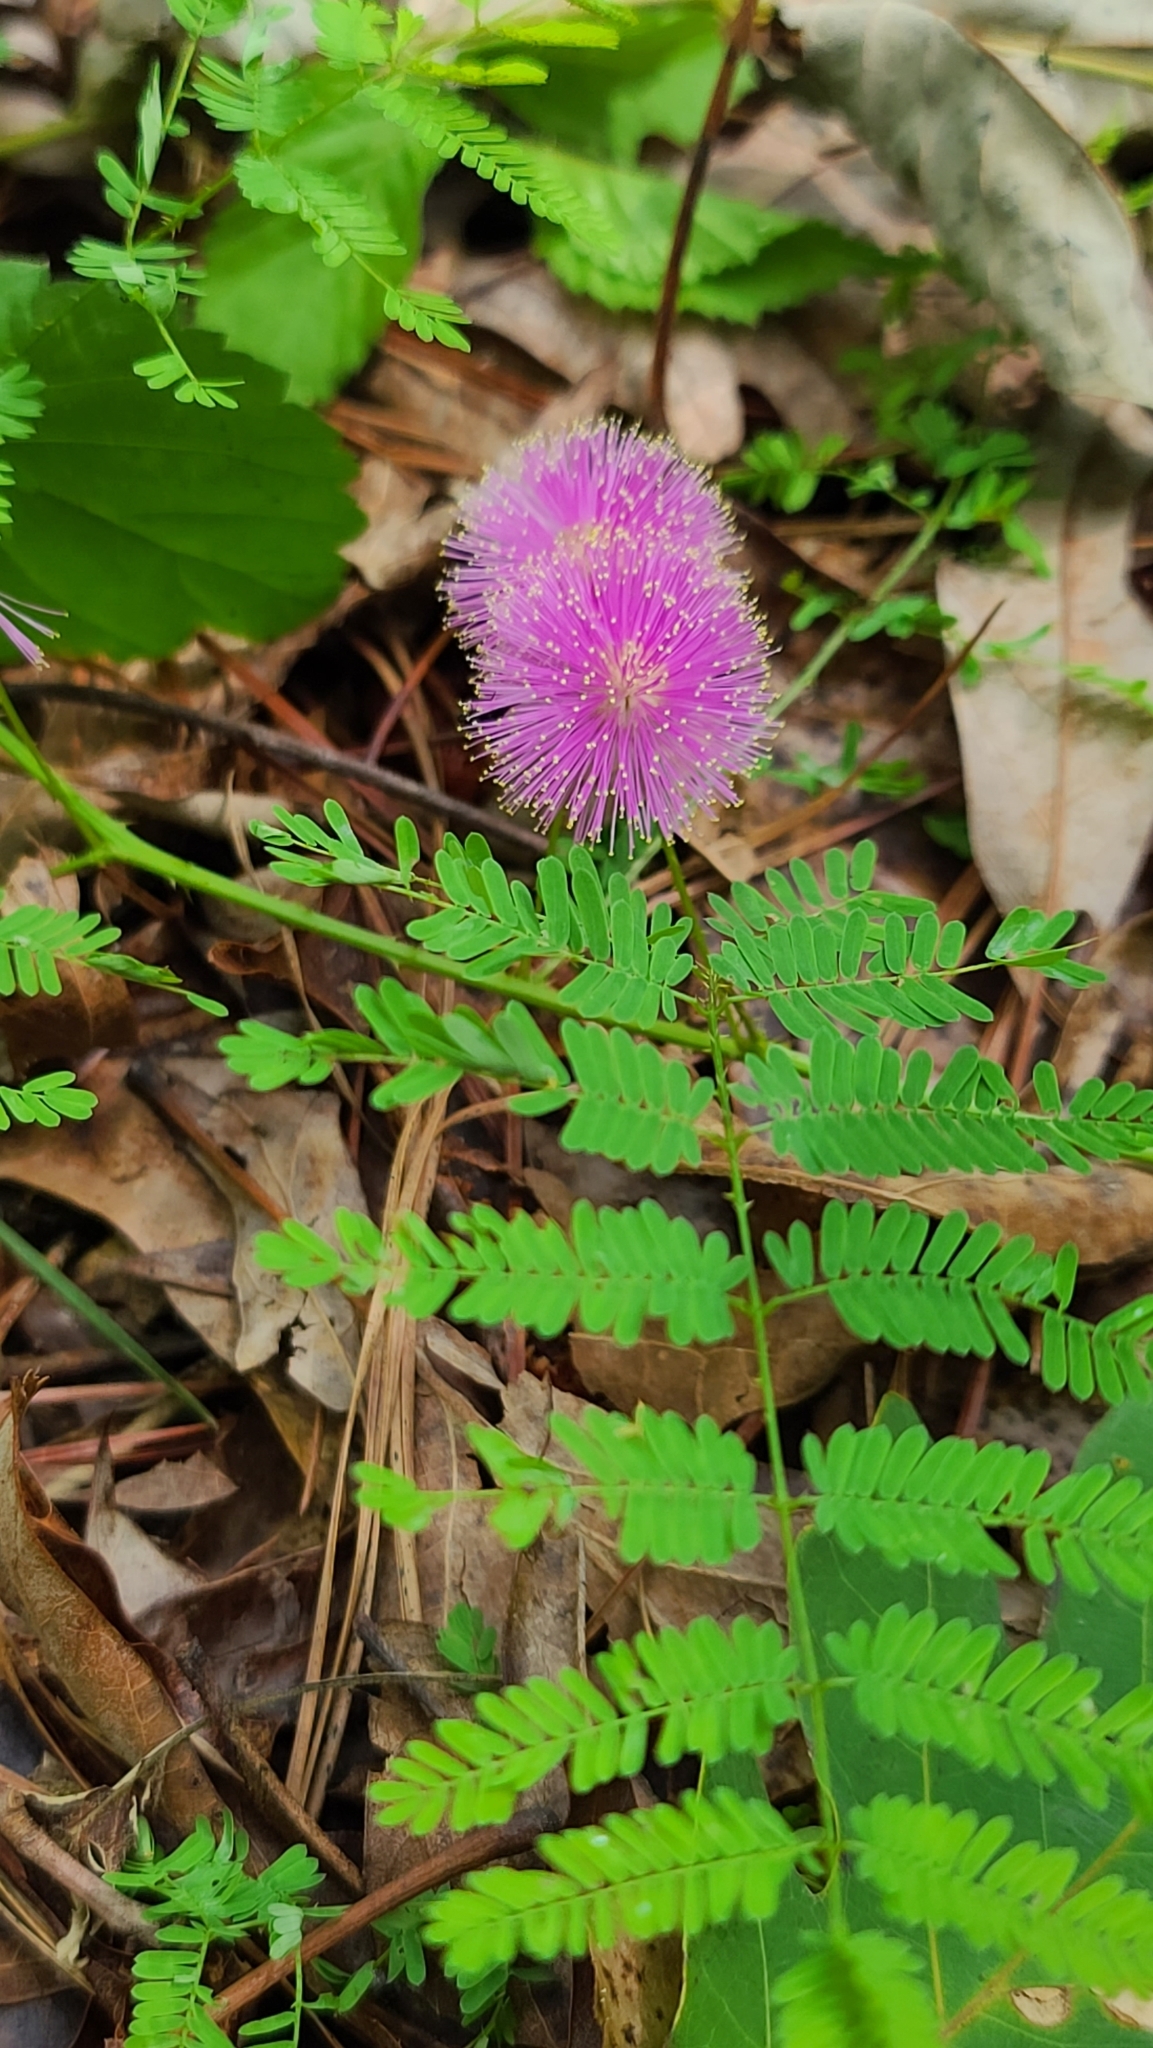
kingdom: Plantae
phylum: Tracheophyta
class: Magnoliopsida
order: Fabales
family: Fabaceae
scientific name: Fabaceae
